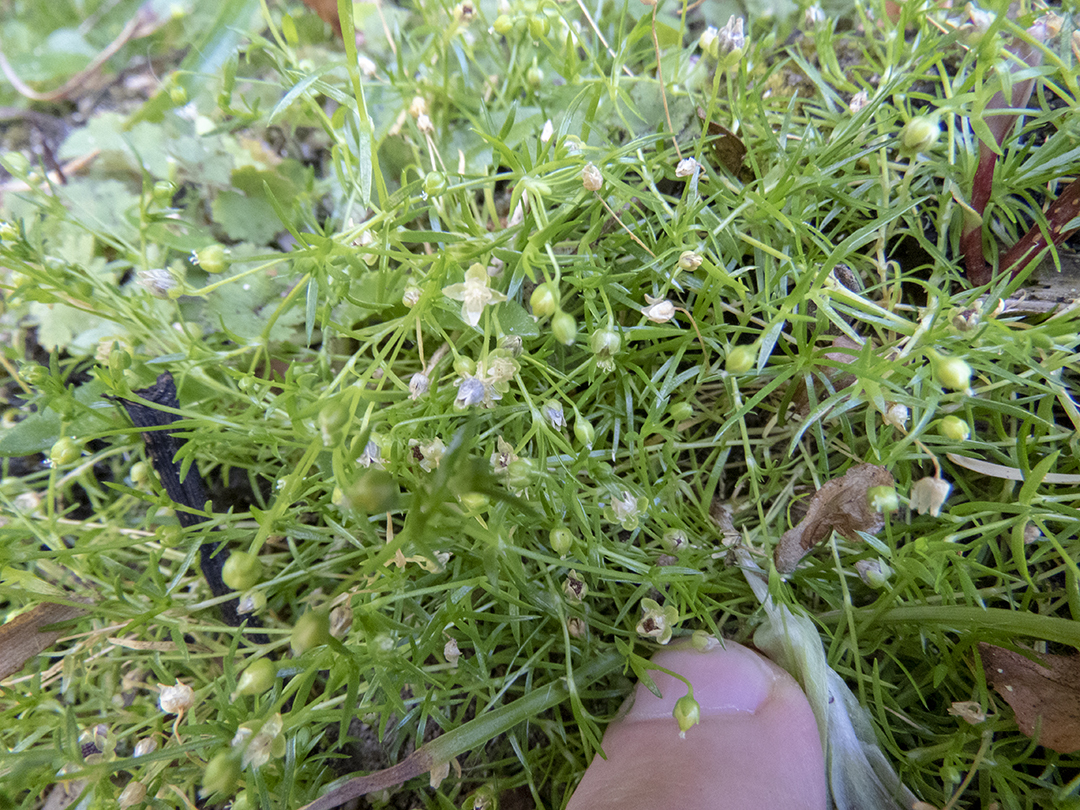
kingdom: Plantae
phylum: Tracheophyta
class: Magnoliopsida
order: Caryophyllales
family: Caryophyllaceae
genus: Sagina
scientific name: Sagina procumbens
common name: Procumbent pearlwort
